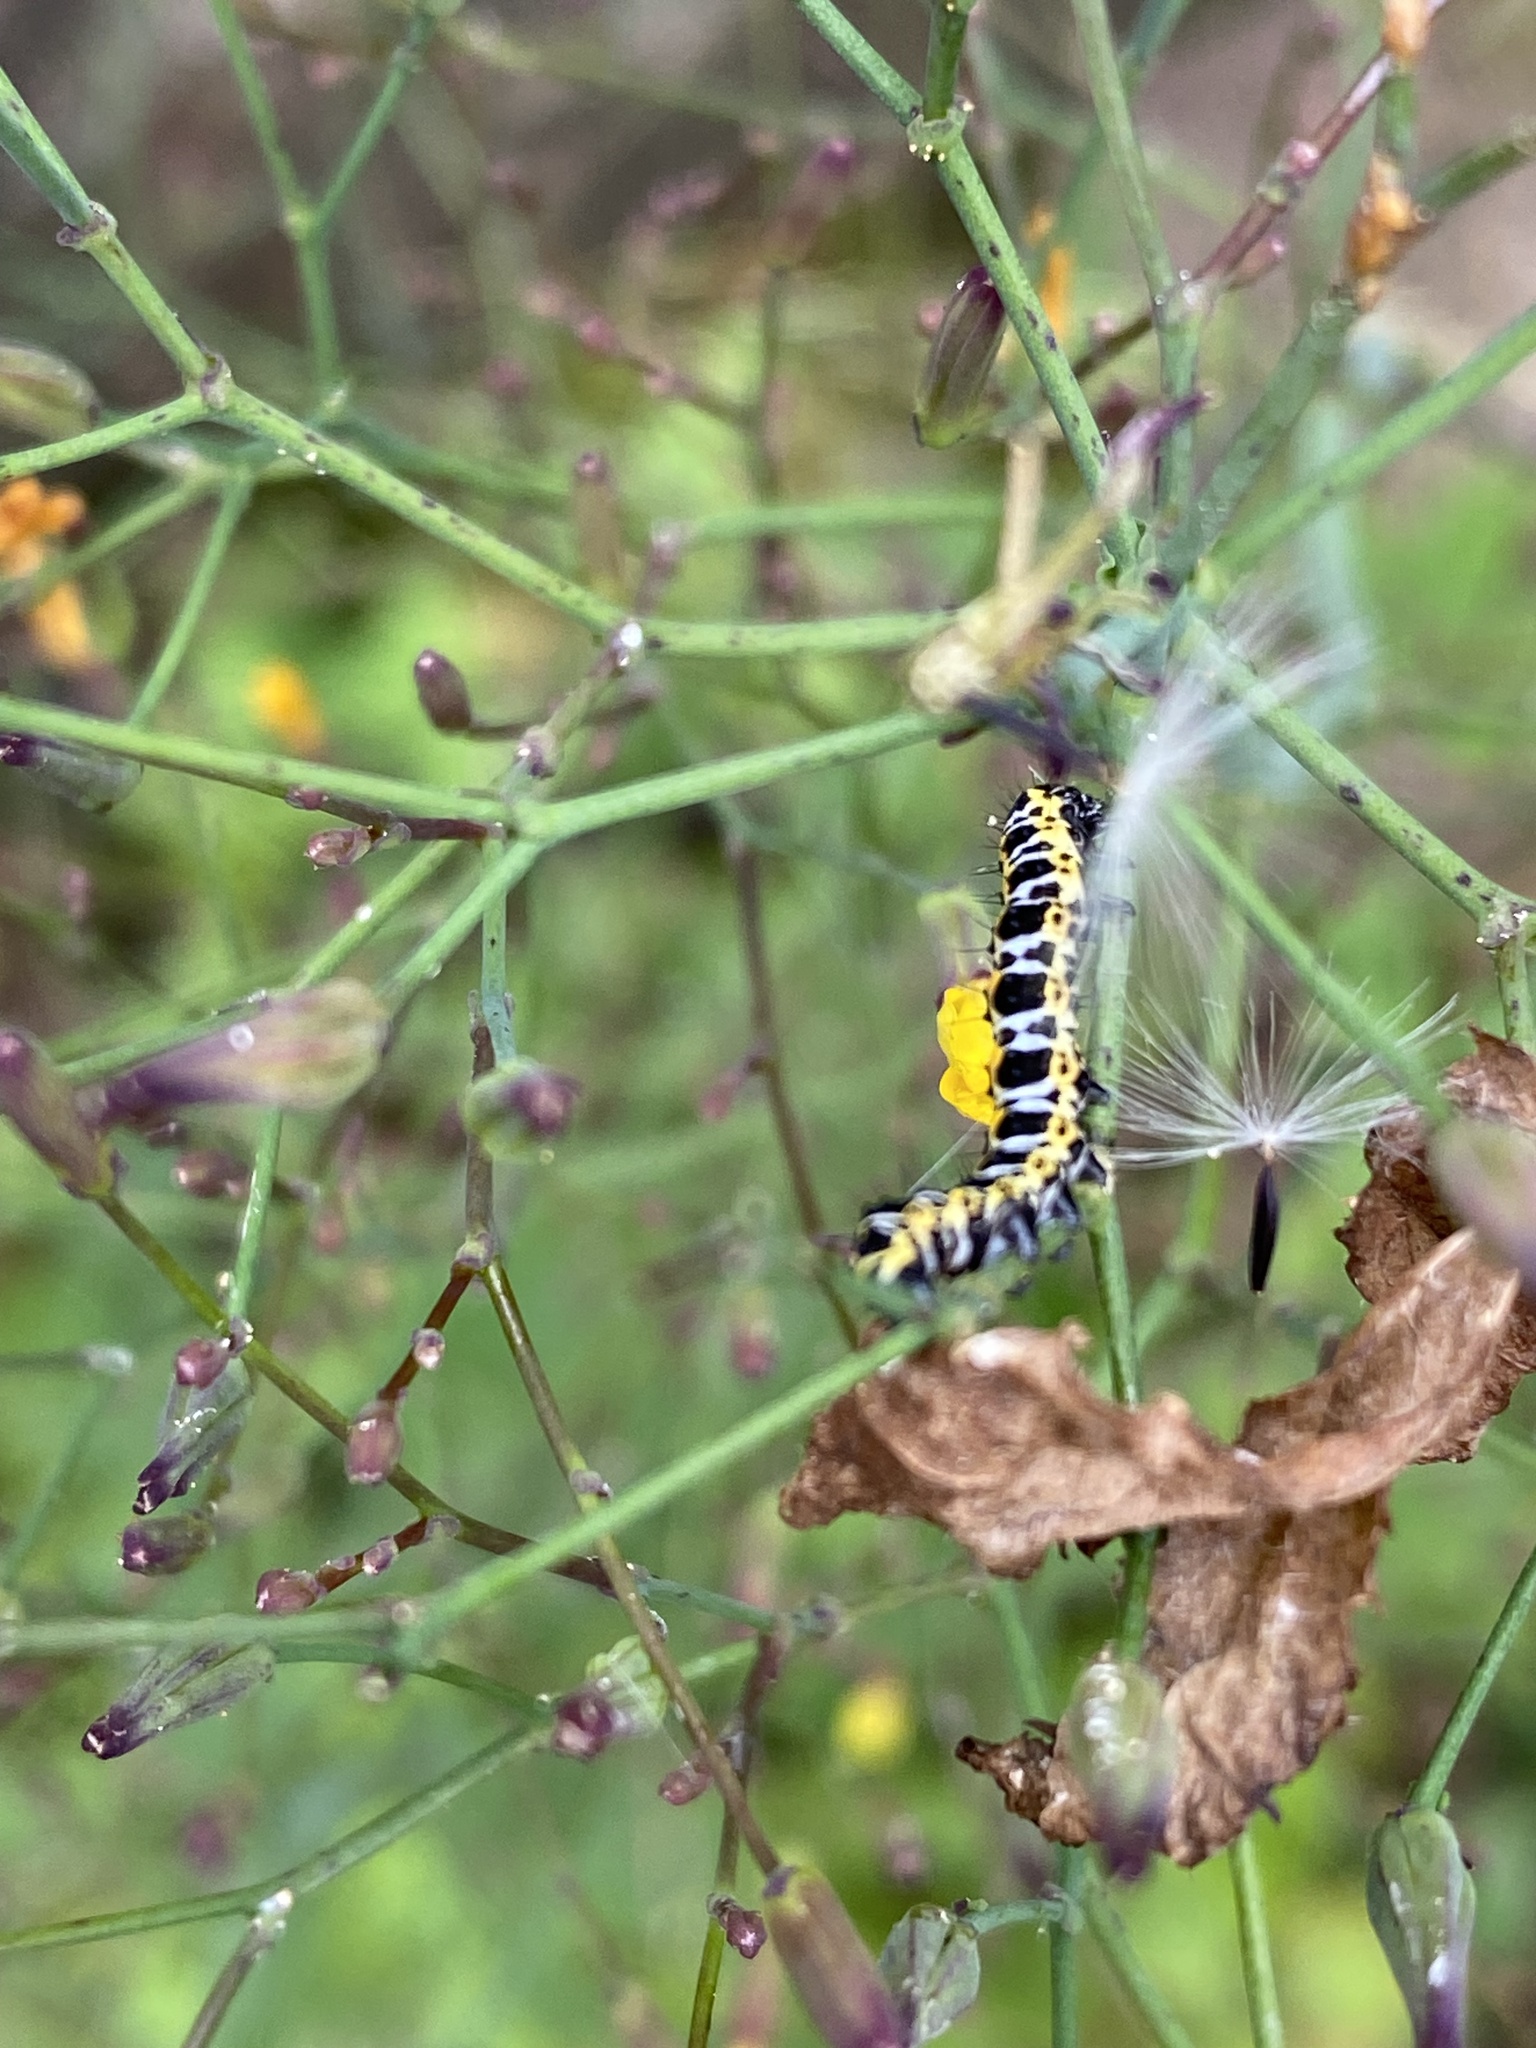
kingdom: Animalia
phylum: Arthropoda
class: Insecta
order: Lepidoptera
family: Noctuidae
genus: Cucullia
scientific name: Cucullia lactucae
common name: Lettuce shark
